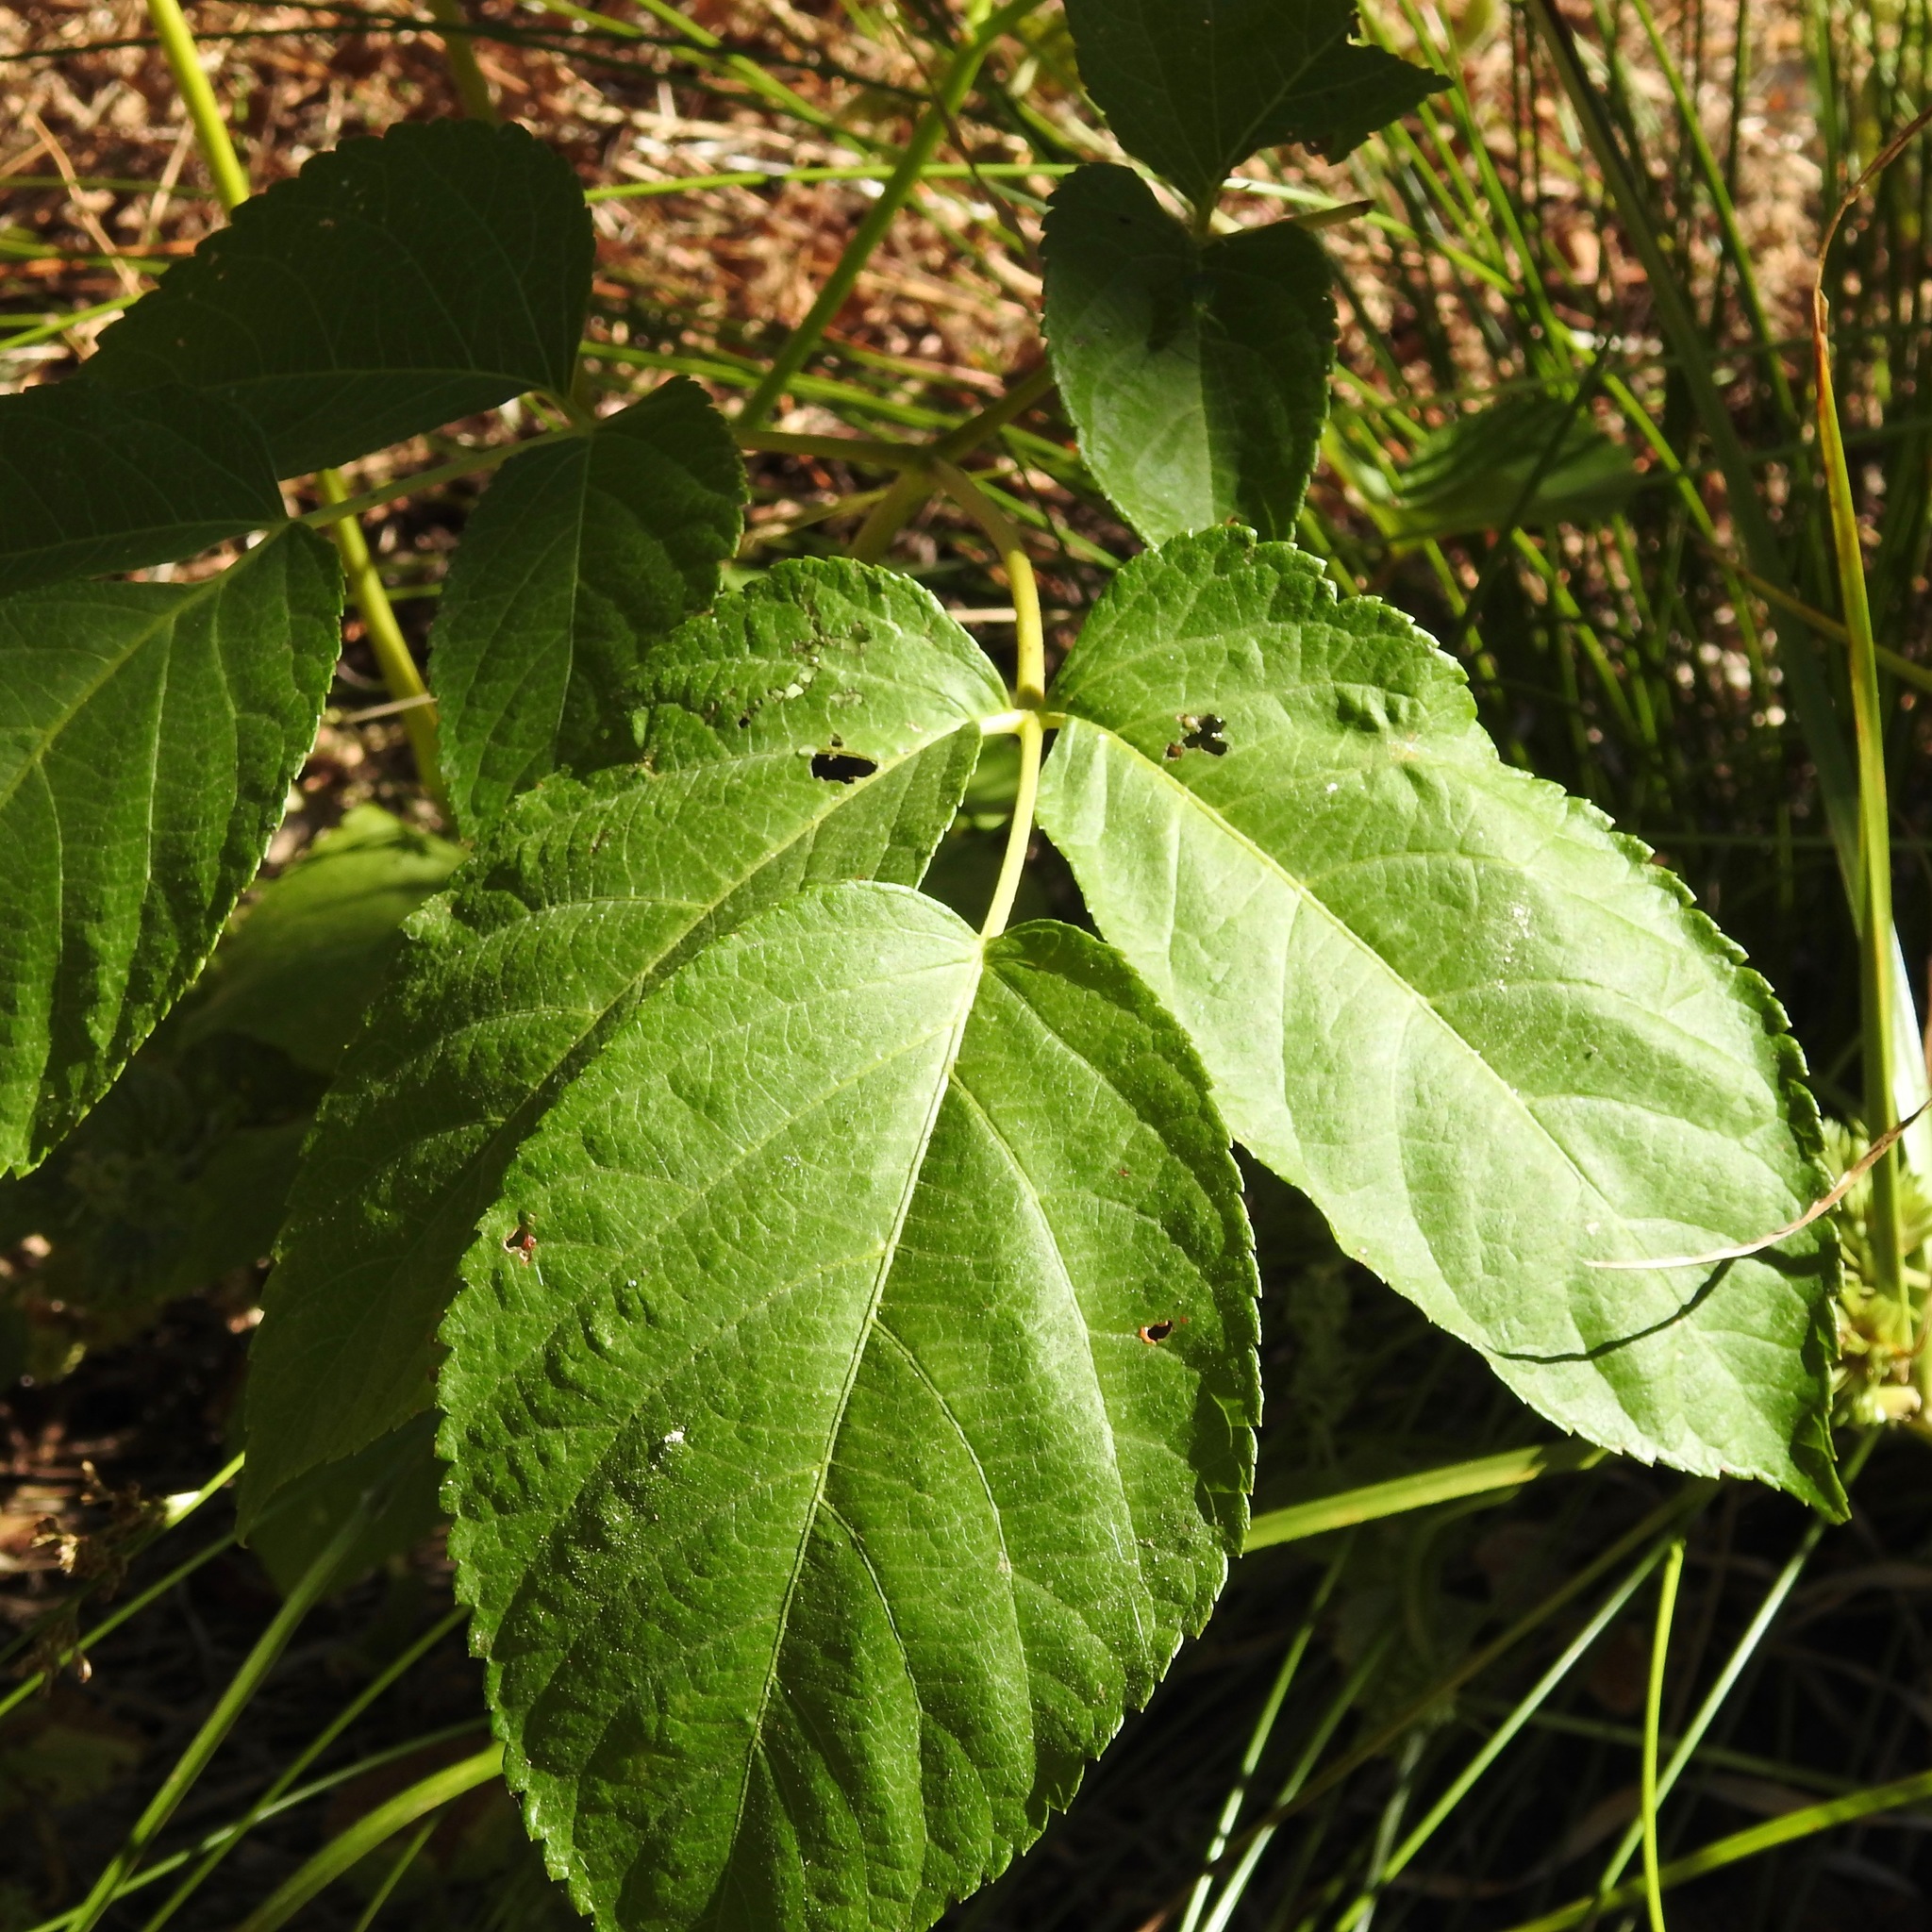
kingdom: Plantae
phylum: Tracheophyta
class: Magnoliopsida
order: Apiales
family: Araliaceae
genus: Aralia
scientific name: Aralia californica
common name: California-ginseng
